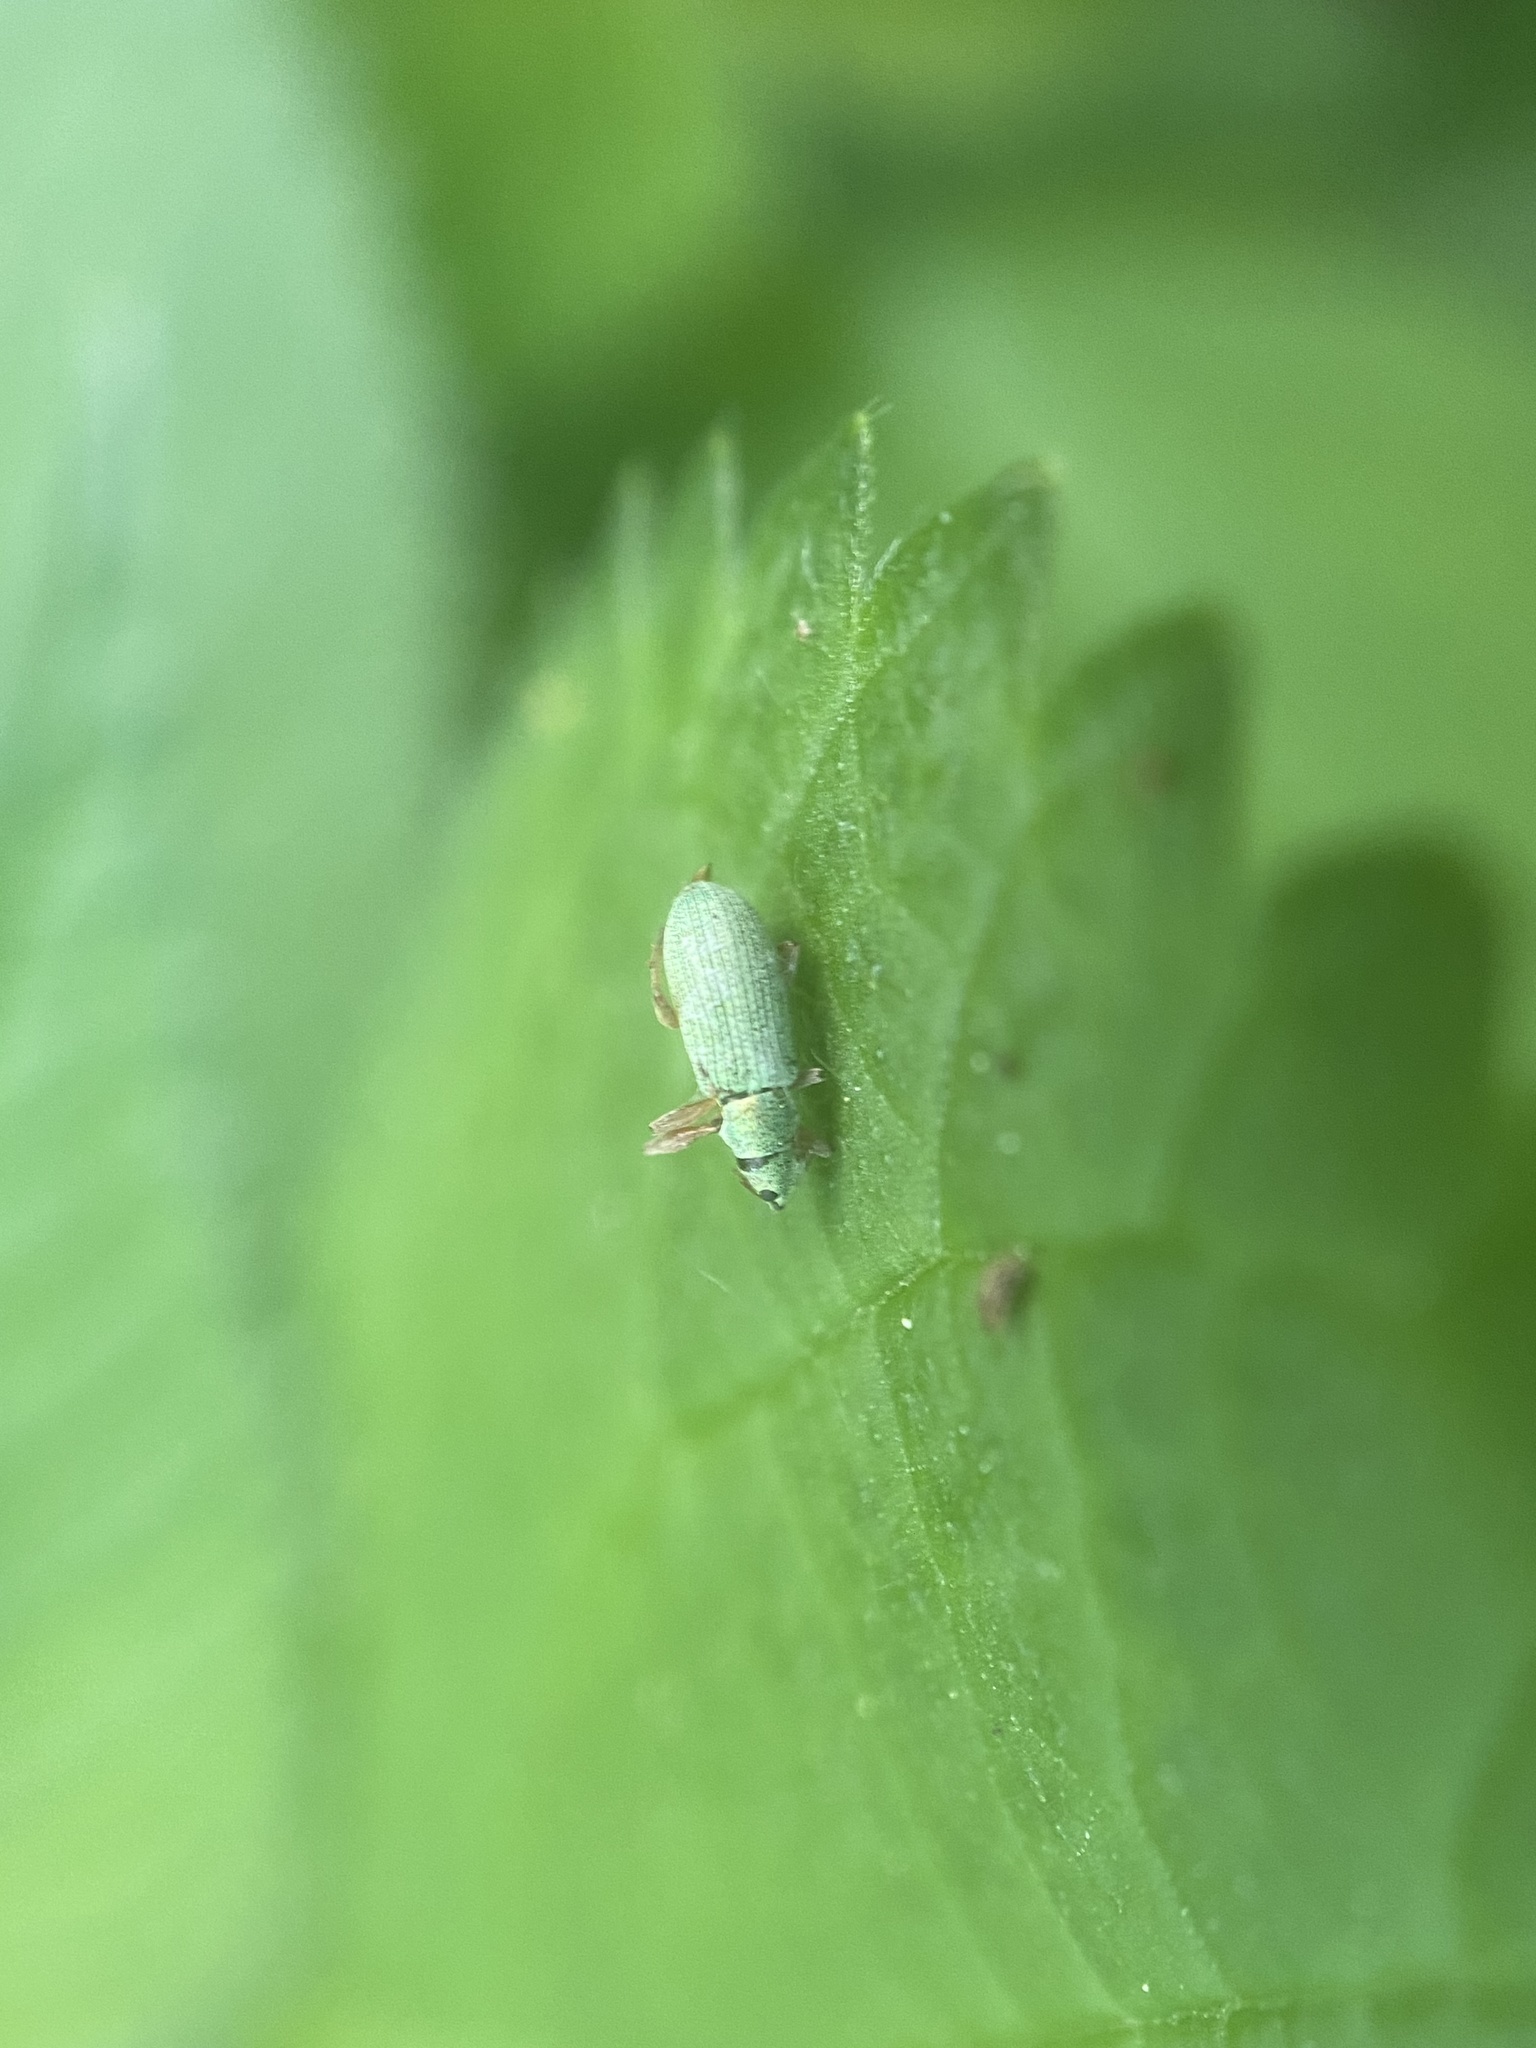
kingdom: Animalia
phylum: Arthropoda
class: Insecta
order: Coleoptera
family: Curculionidae
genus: Polydrusus
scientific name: Polydrusus impressifrons
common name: Weevil
